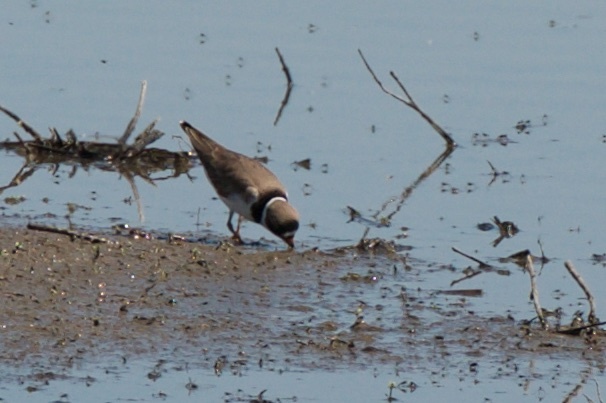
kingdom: Animalia
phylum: Chordata
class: Aves
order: Charadriiformes
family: Charadriidae
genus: Charadrius
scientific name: Charadrius semipalmatus
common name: Semipalmated plover
